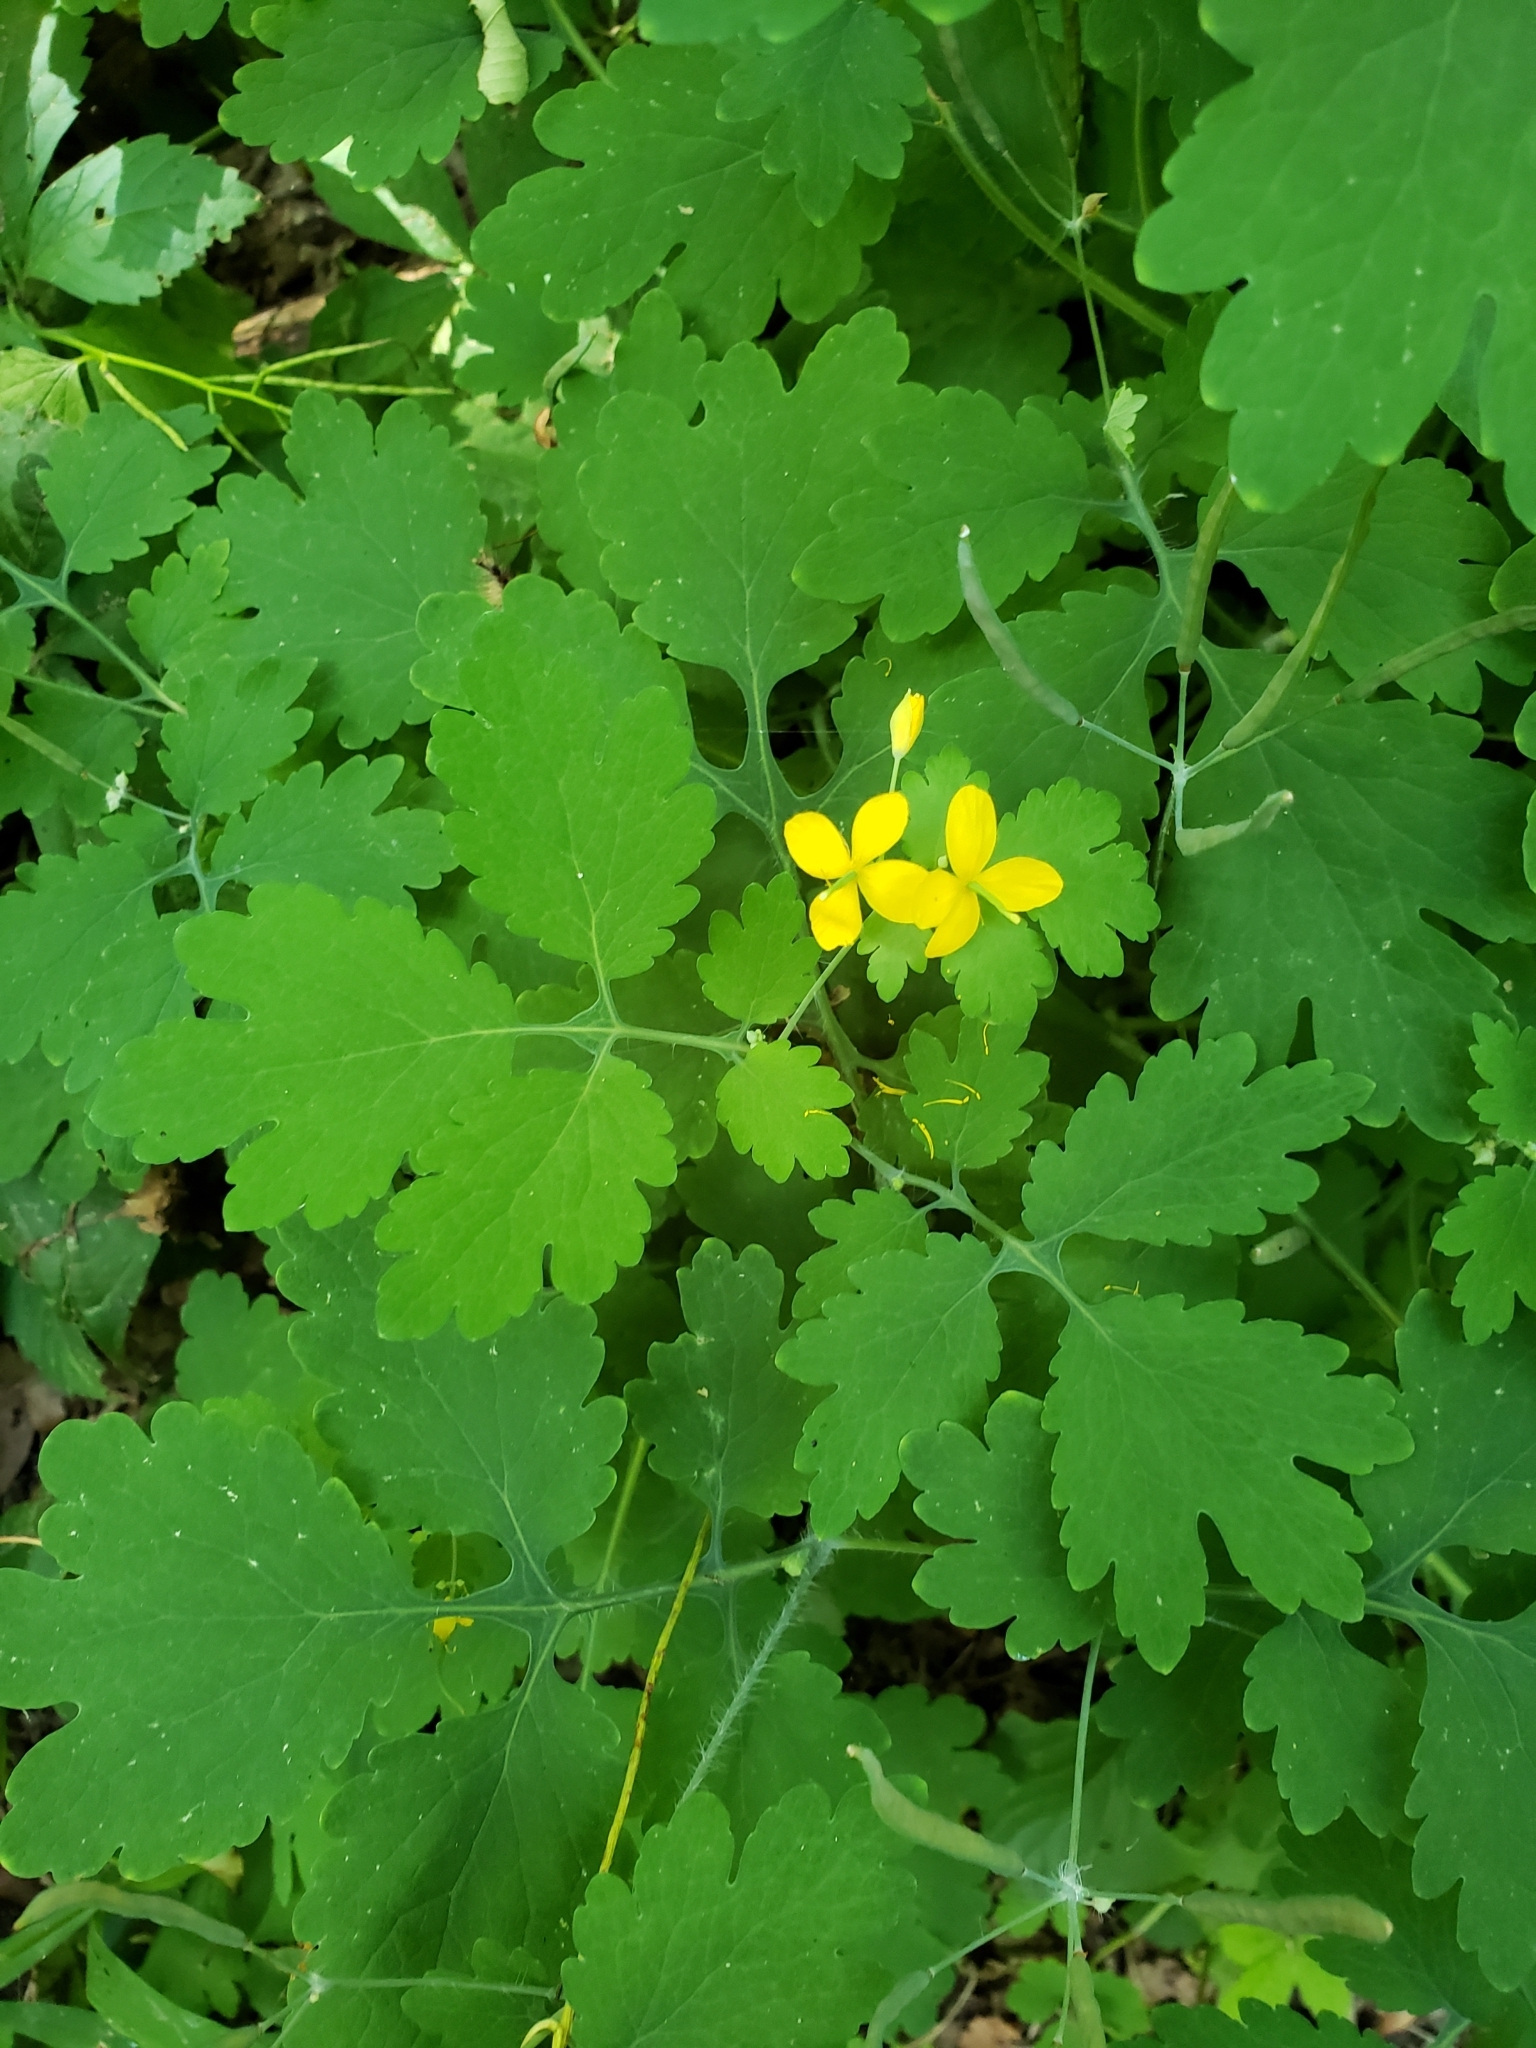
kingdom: Plantae
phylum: Tracheophyta
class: Magnoliopsida
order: Ranunculales
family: Papaveraceae
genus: Chelidonium
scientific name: Chelidonium majus
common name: Greater celandine
